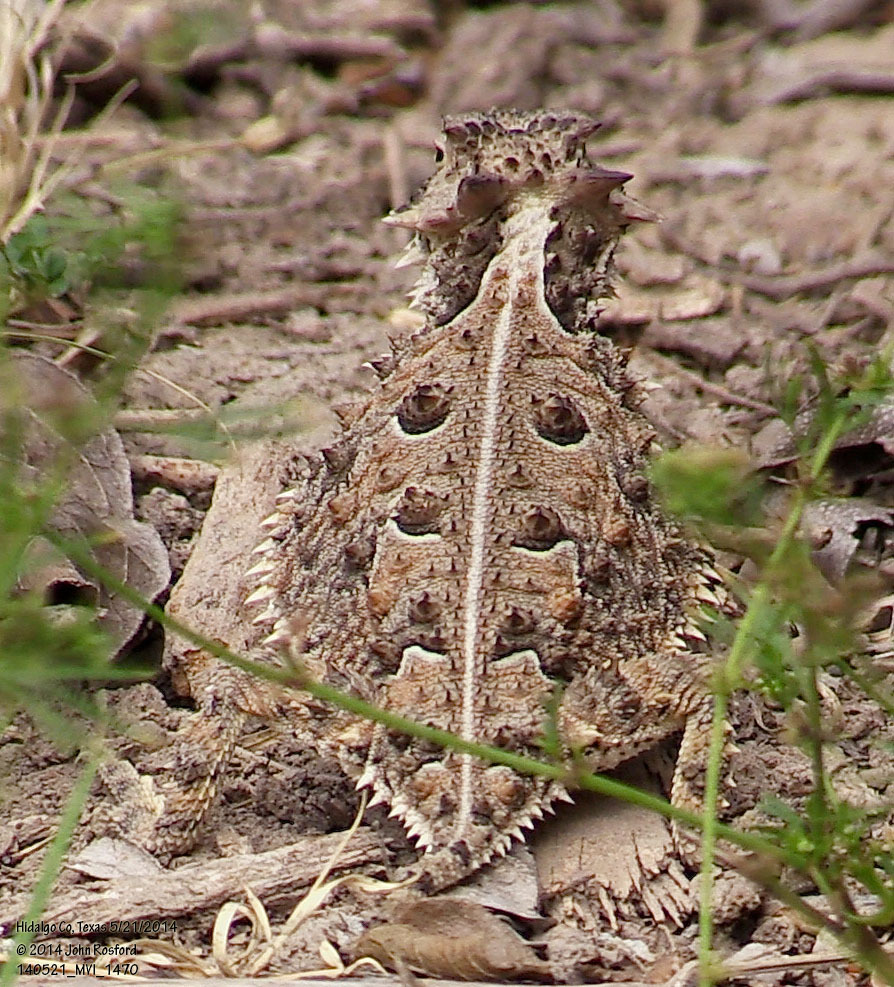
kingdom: Animalia
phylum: Chordata
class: Squamata
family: Phrynosomatidae
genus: Phrynosoma
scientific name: Phrynosoma cornutum
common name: Texas horned lizard
